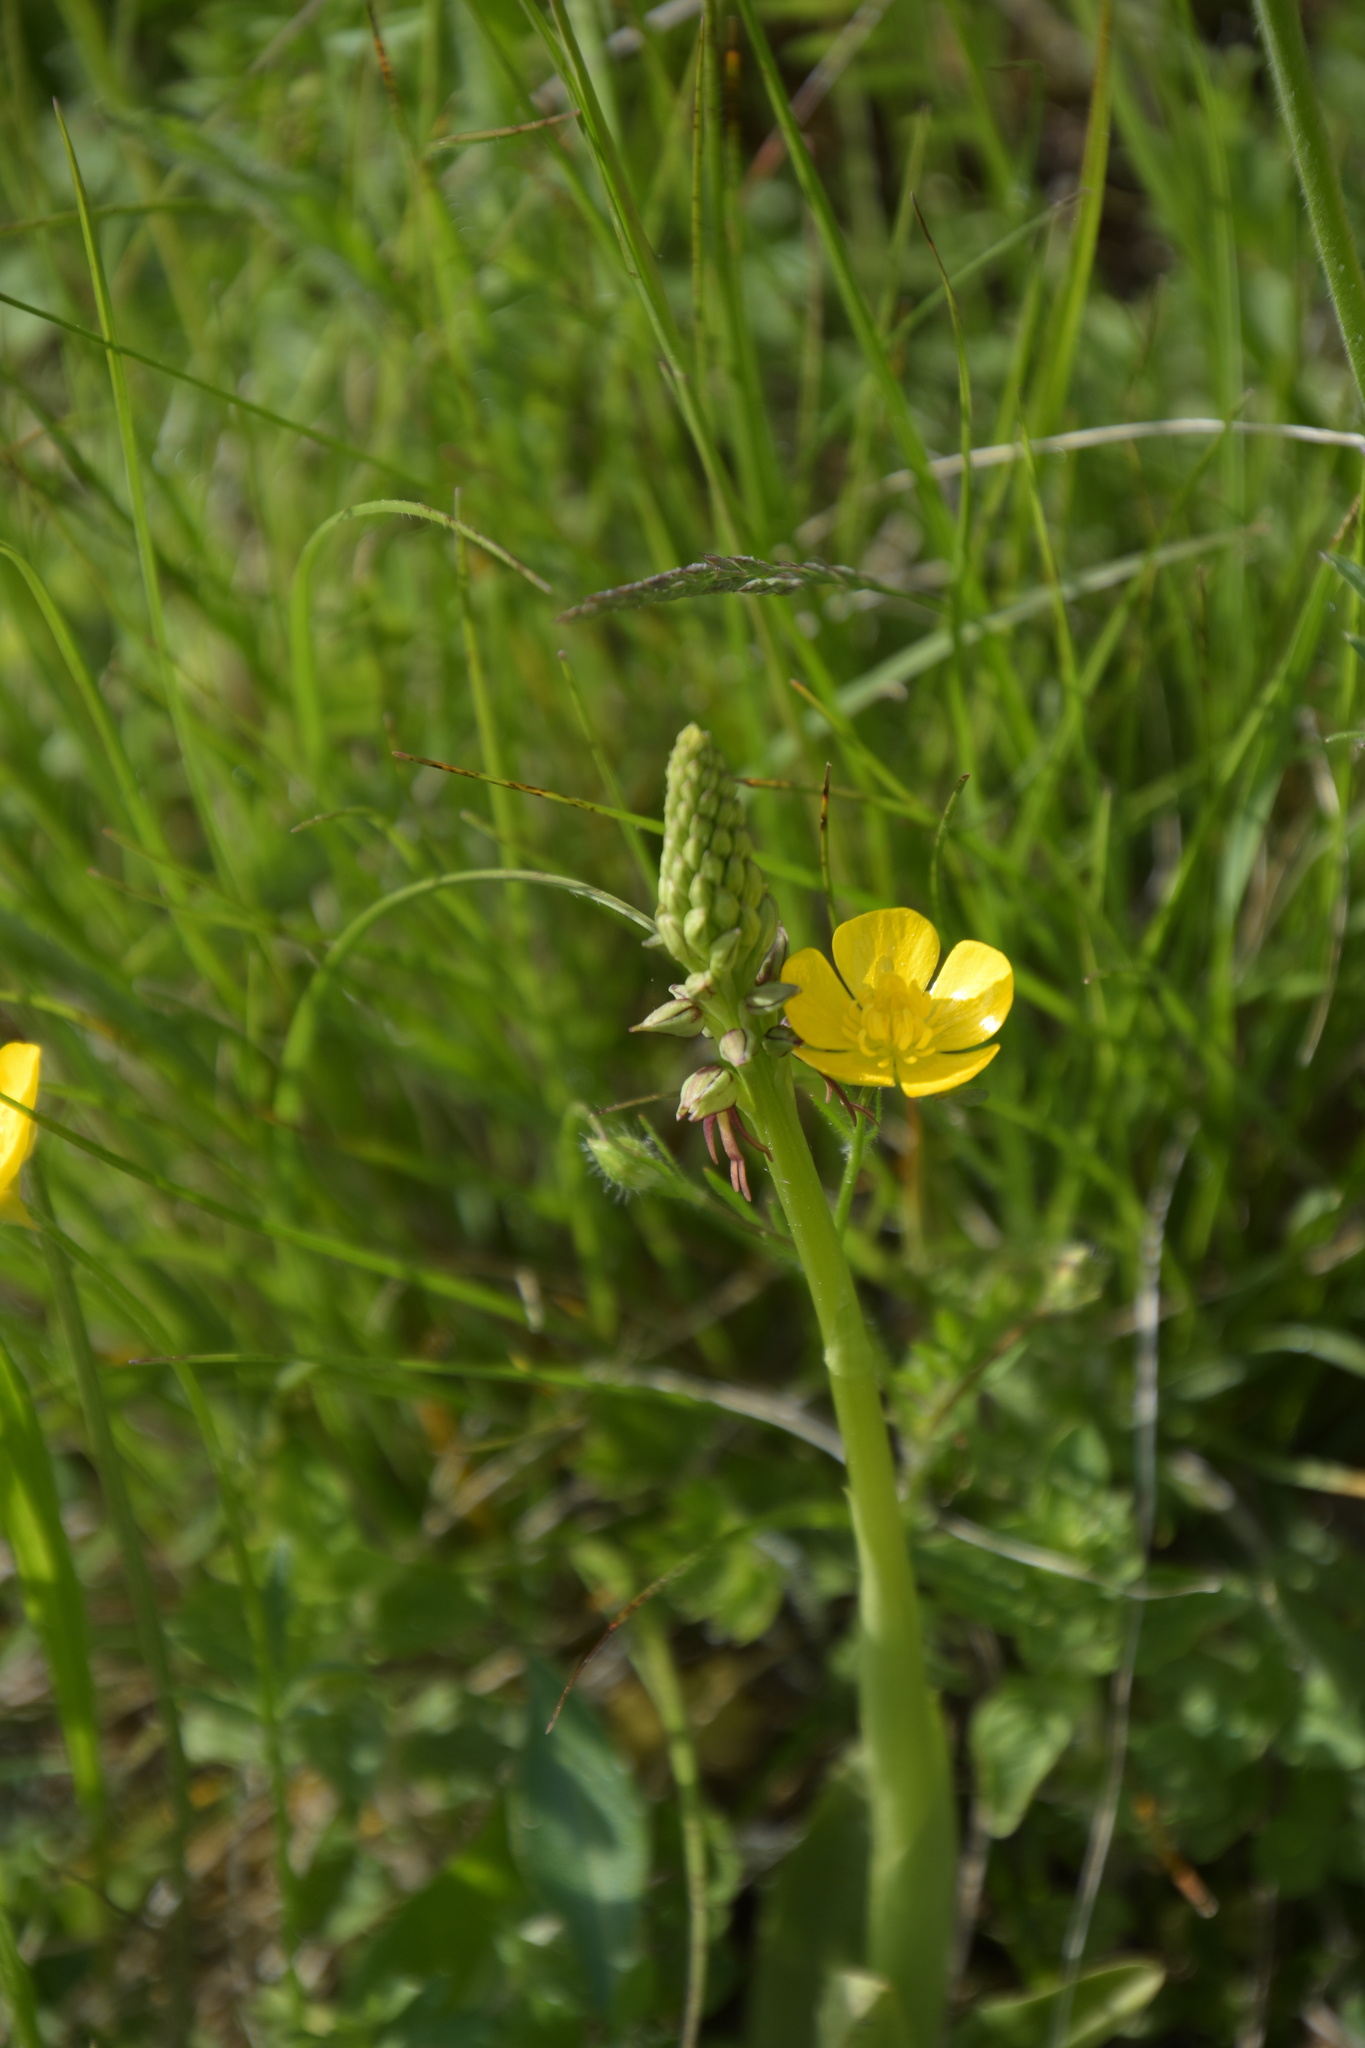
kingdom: Plantae
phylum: Tracheophyta
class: Liliopsida
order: Asparagales
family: Orchidaceae
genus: Orchis
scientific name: Orchis anthropophora
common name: Man orchid
